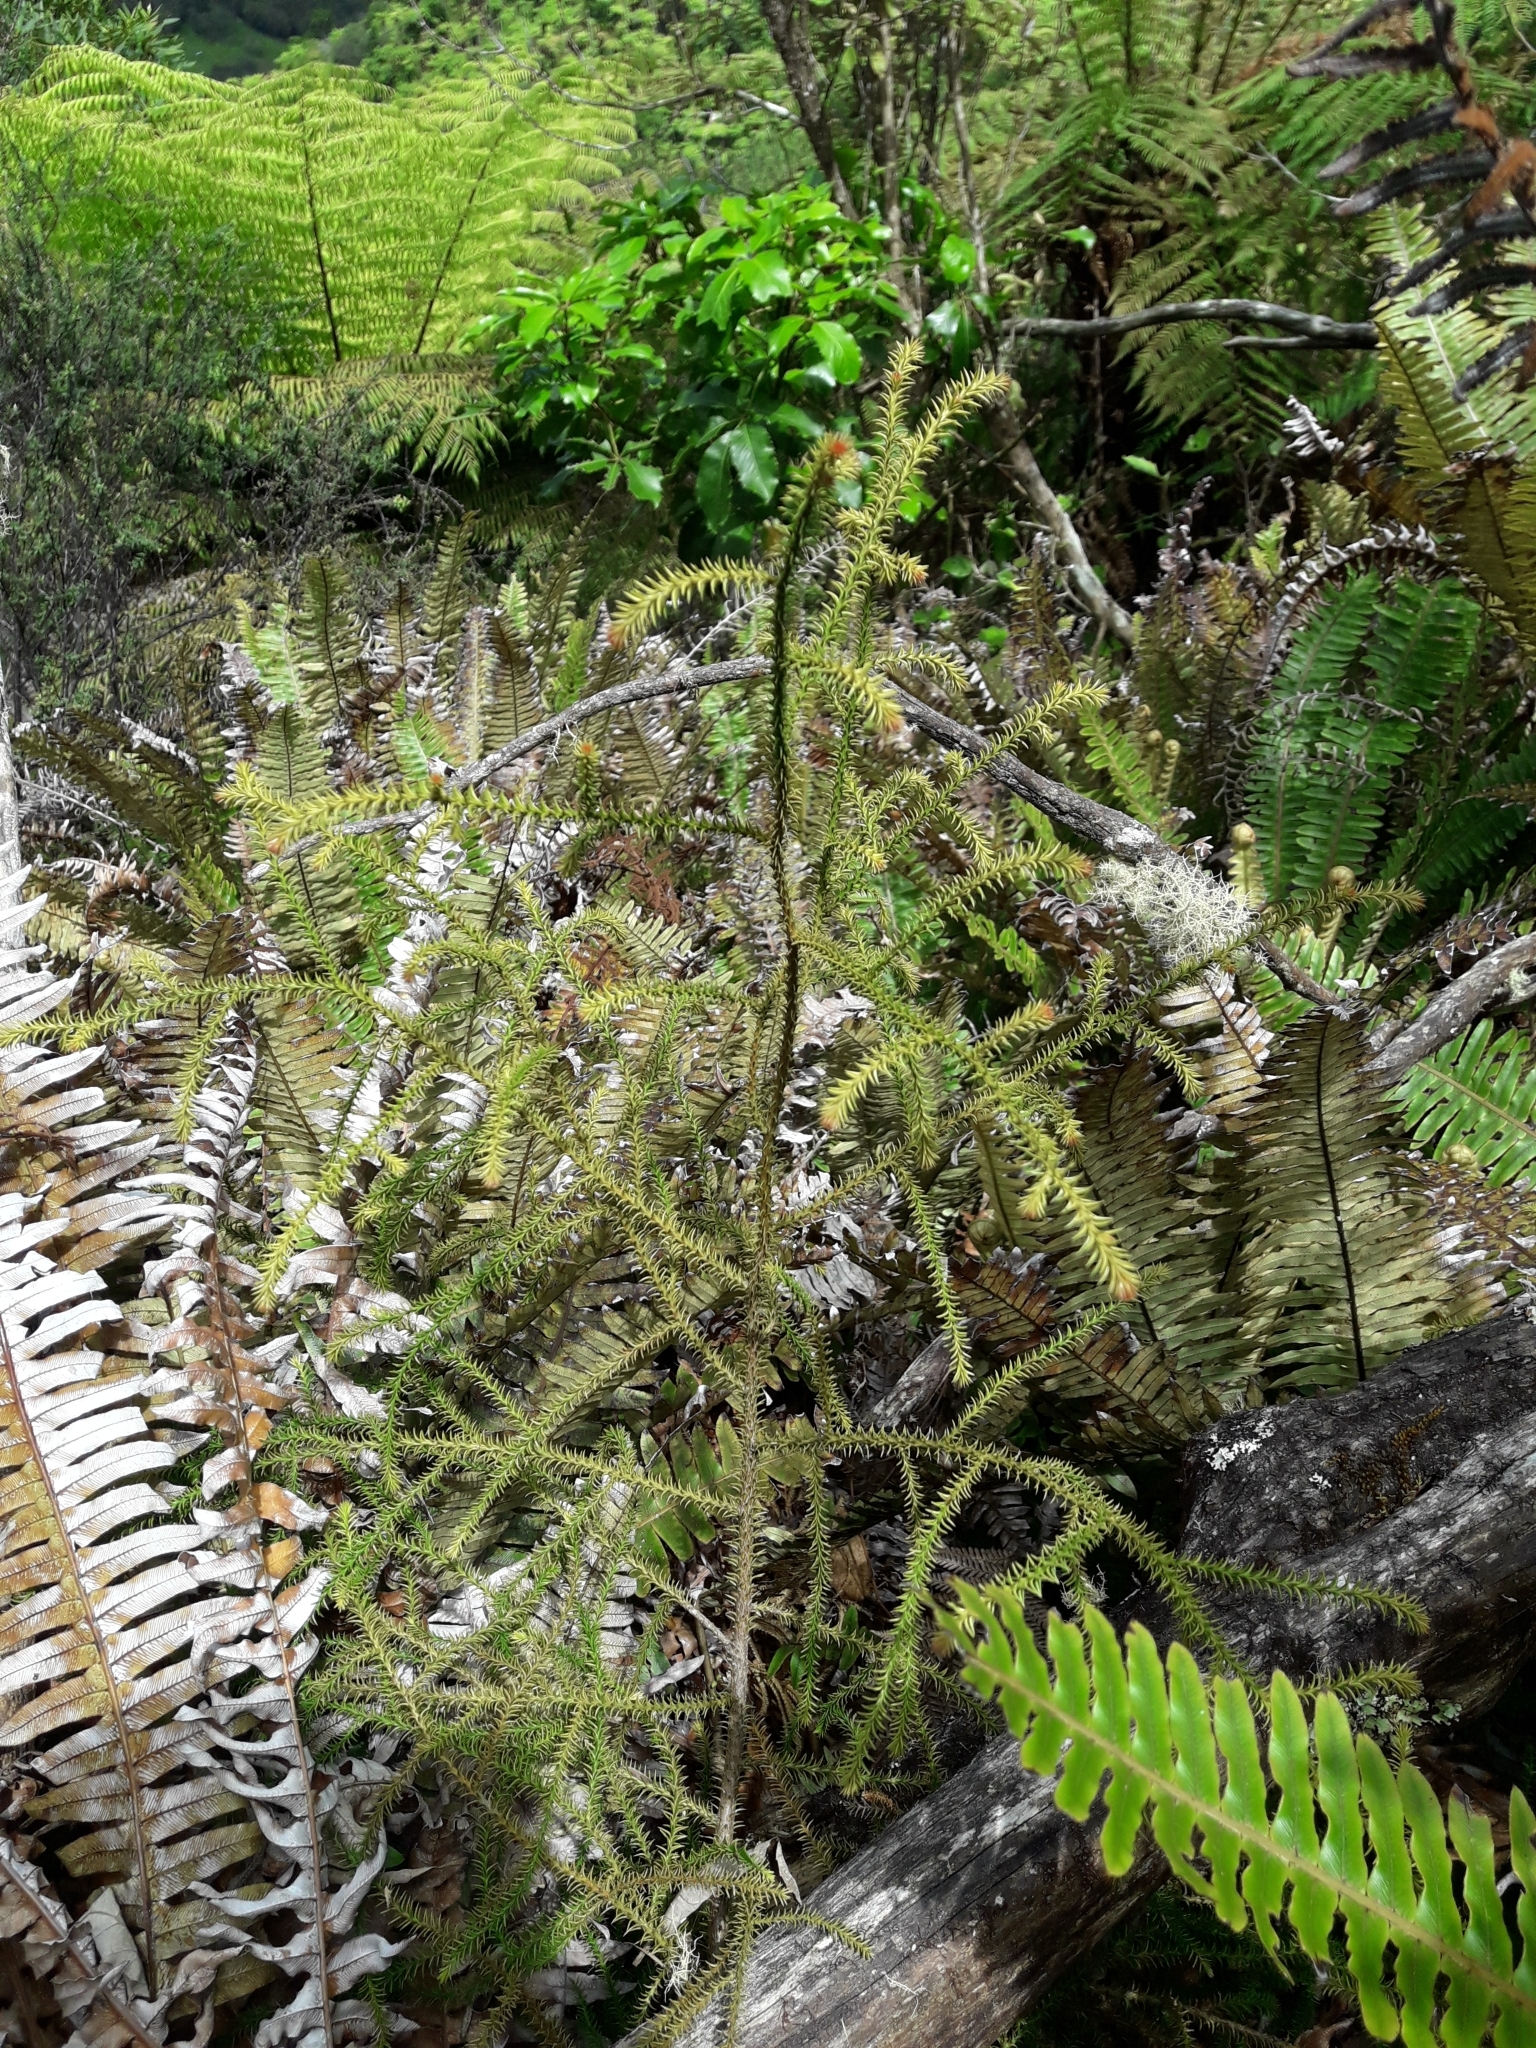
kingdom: Plantae
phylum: Tracheophyta
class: Pinopsida
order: Pinales
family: Podocarpaceae
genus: Dacrydium
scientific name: Dacrydium cupressinum
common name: Red pine
